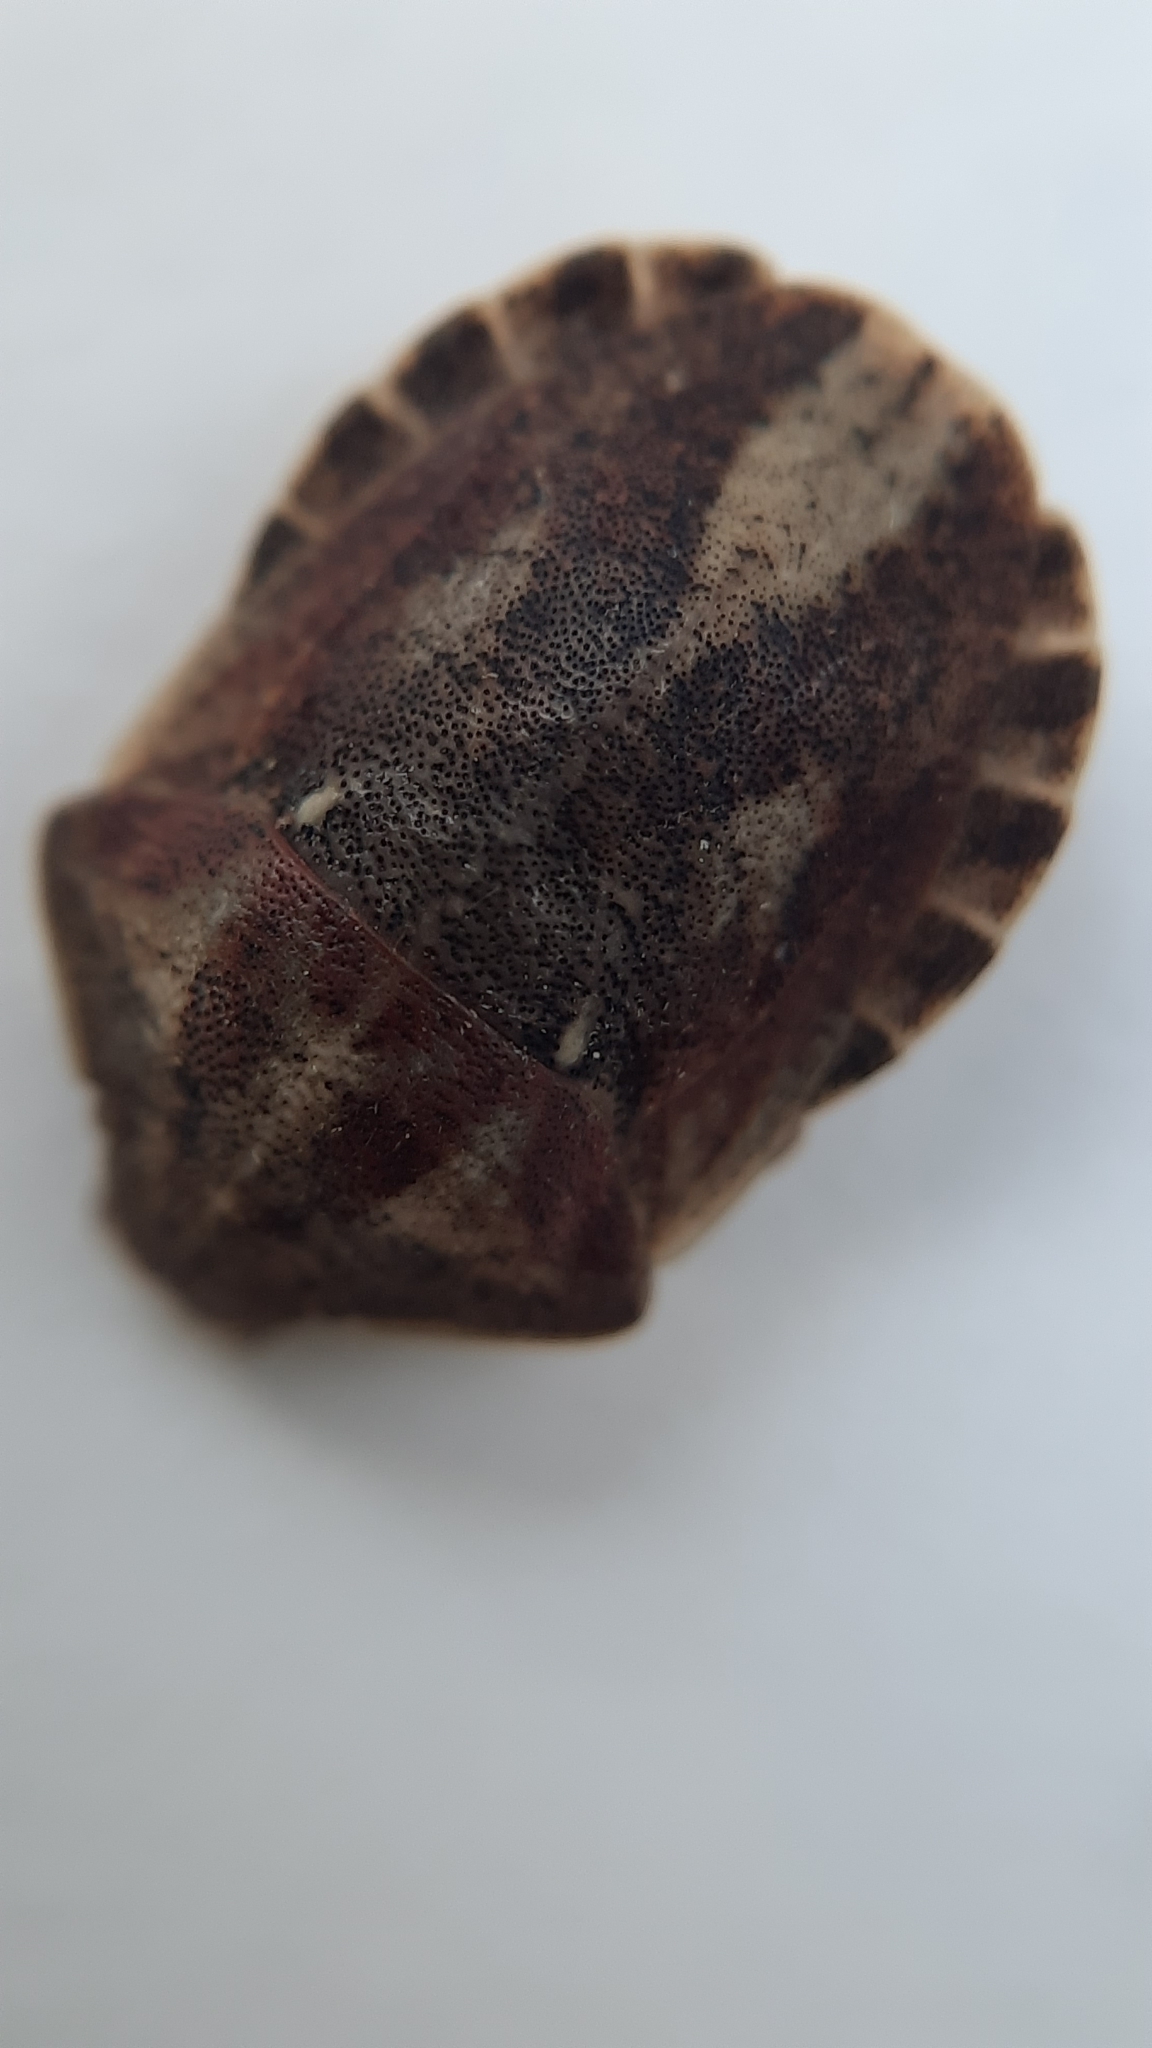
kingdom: Animalia
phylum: Arthropoda
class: Insecta
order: Hemiptera
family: Scutelleridae
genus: Eurygaster
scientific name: Eurygaster testudinaria
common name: Tortoise bug
